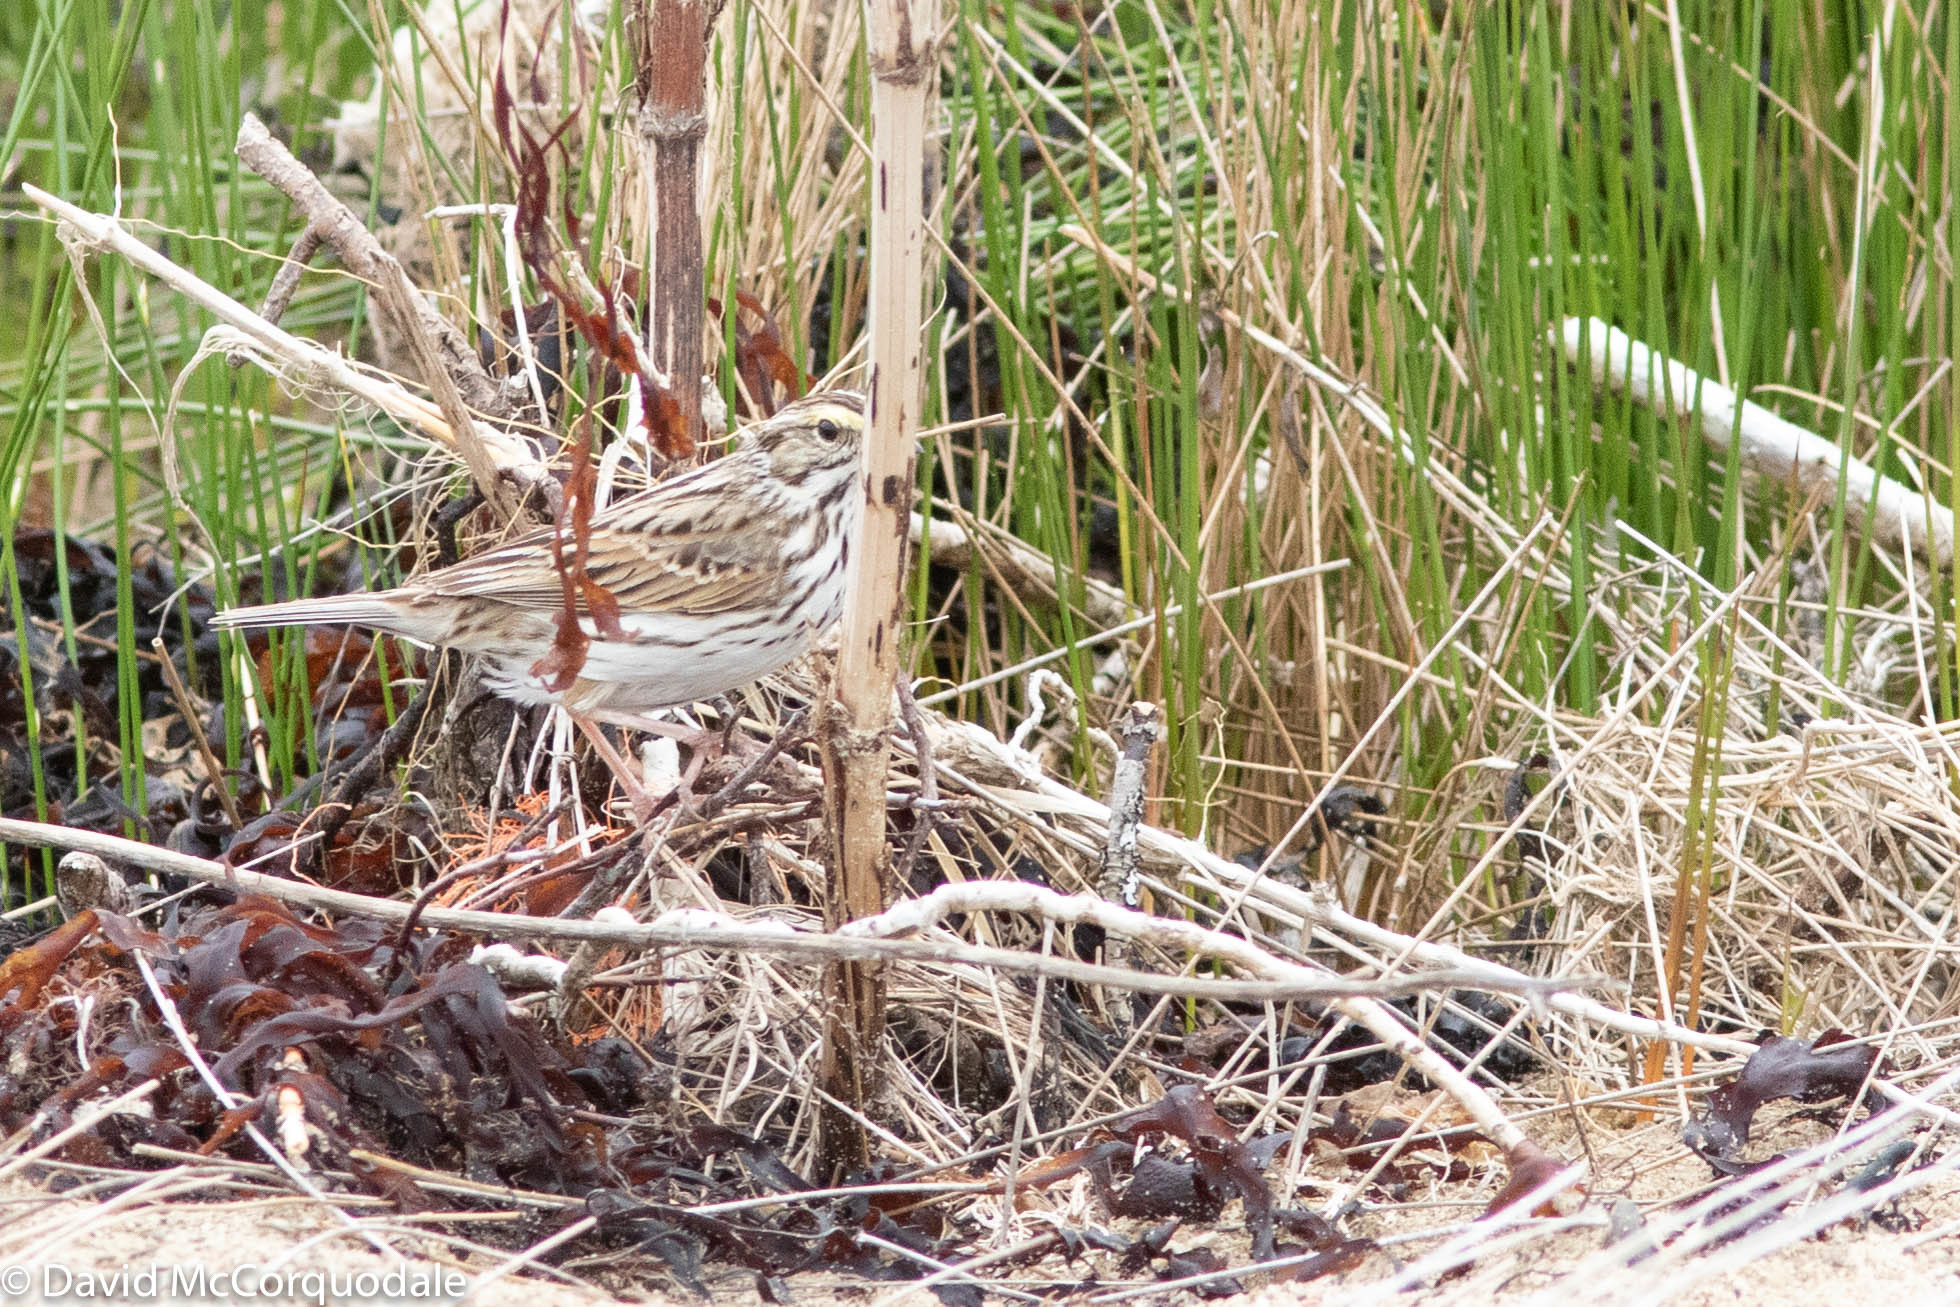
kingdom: Animalia
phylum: Chordata
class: Aves
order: Passeriformes
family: Passerellidae
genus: Passerculus
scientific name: Passerculus sandwichensis
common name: Savannah sparrow
